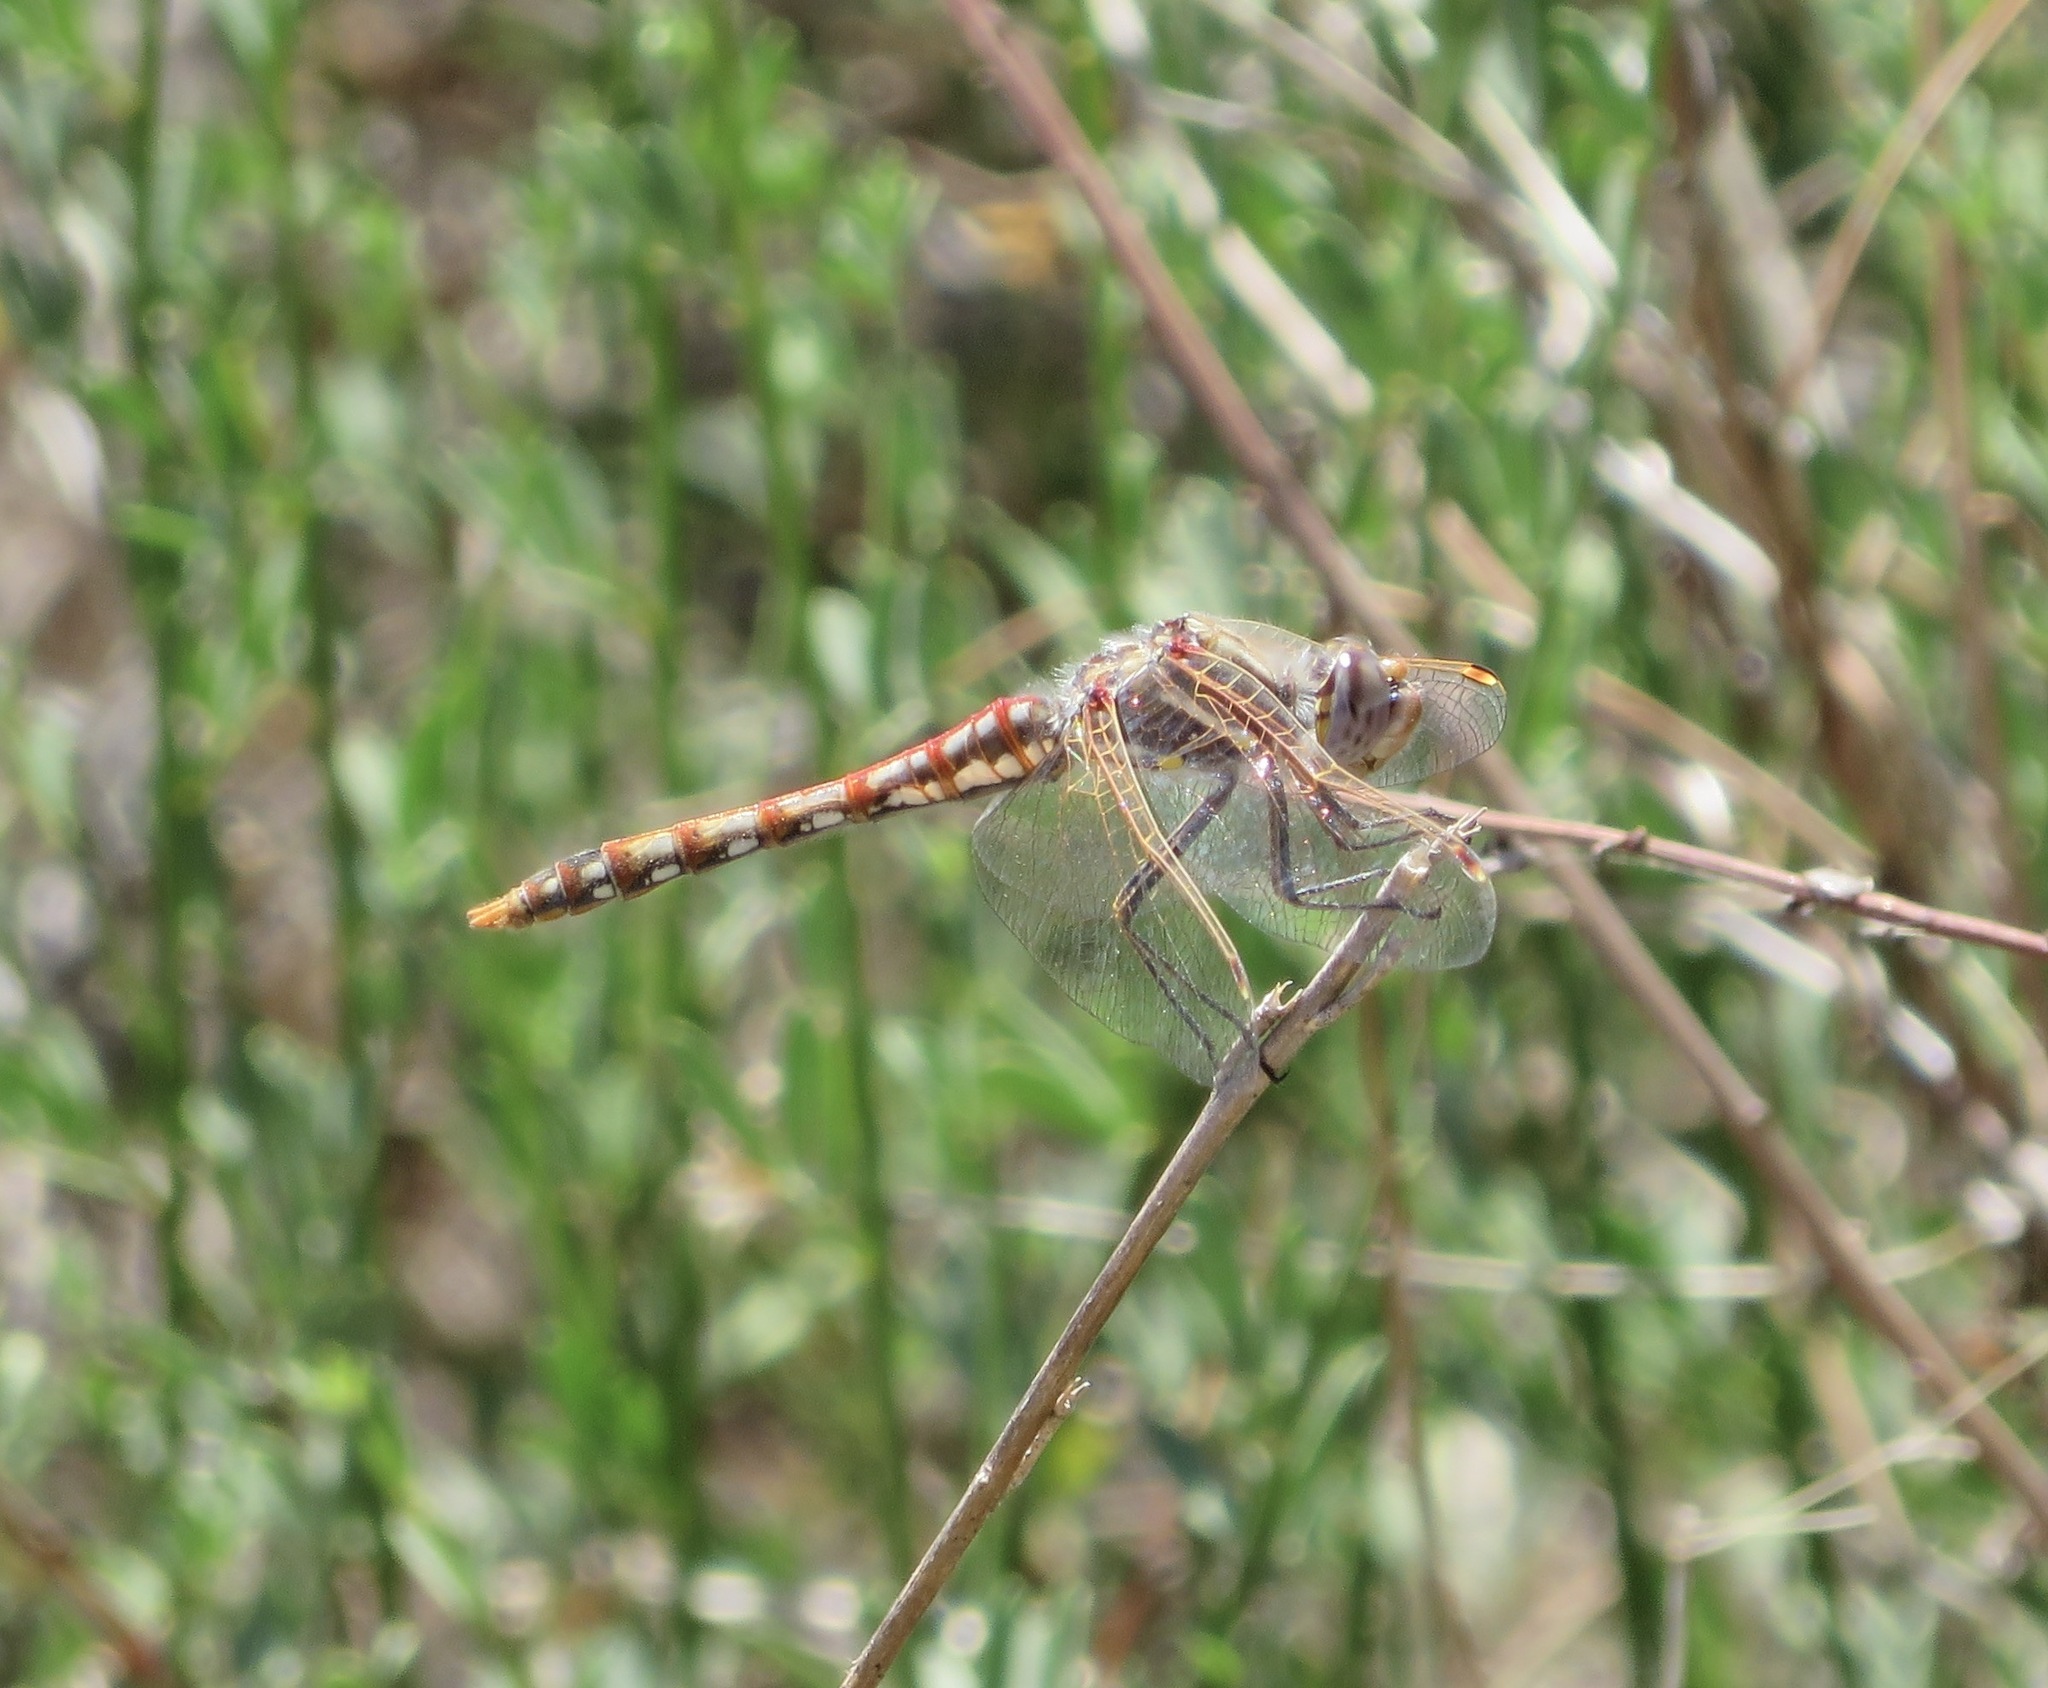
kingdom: Animalia
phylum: Arthropoda
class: Insecta
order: Odonata
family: Libellulidae
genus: Sympetrum
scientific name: Sympetrum corruptum
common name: Variegated meadowhawk
